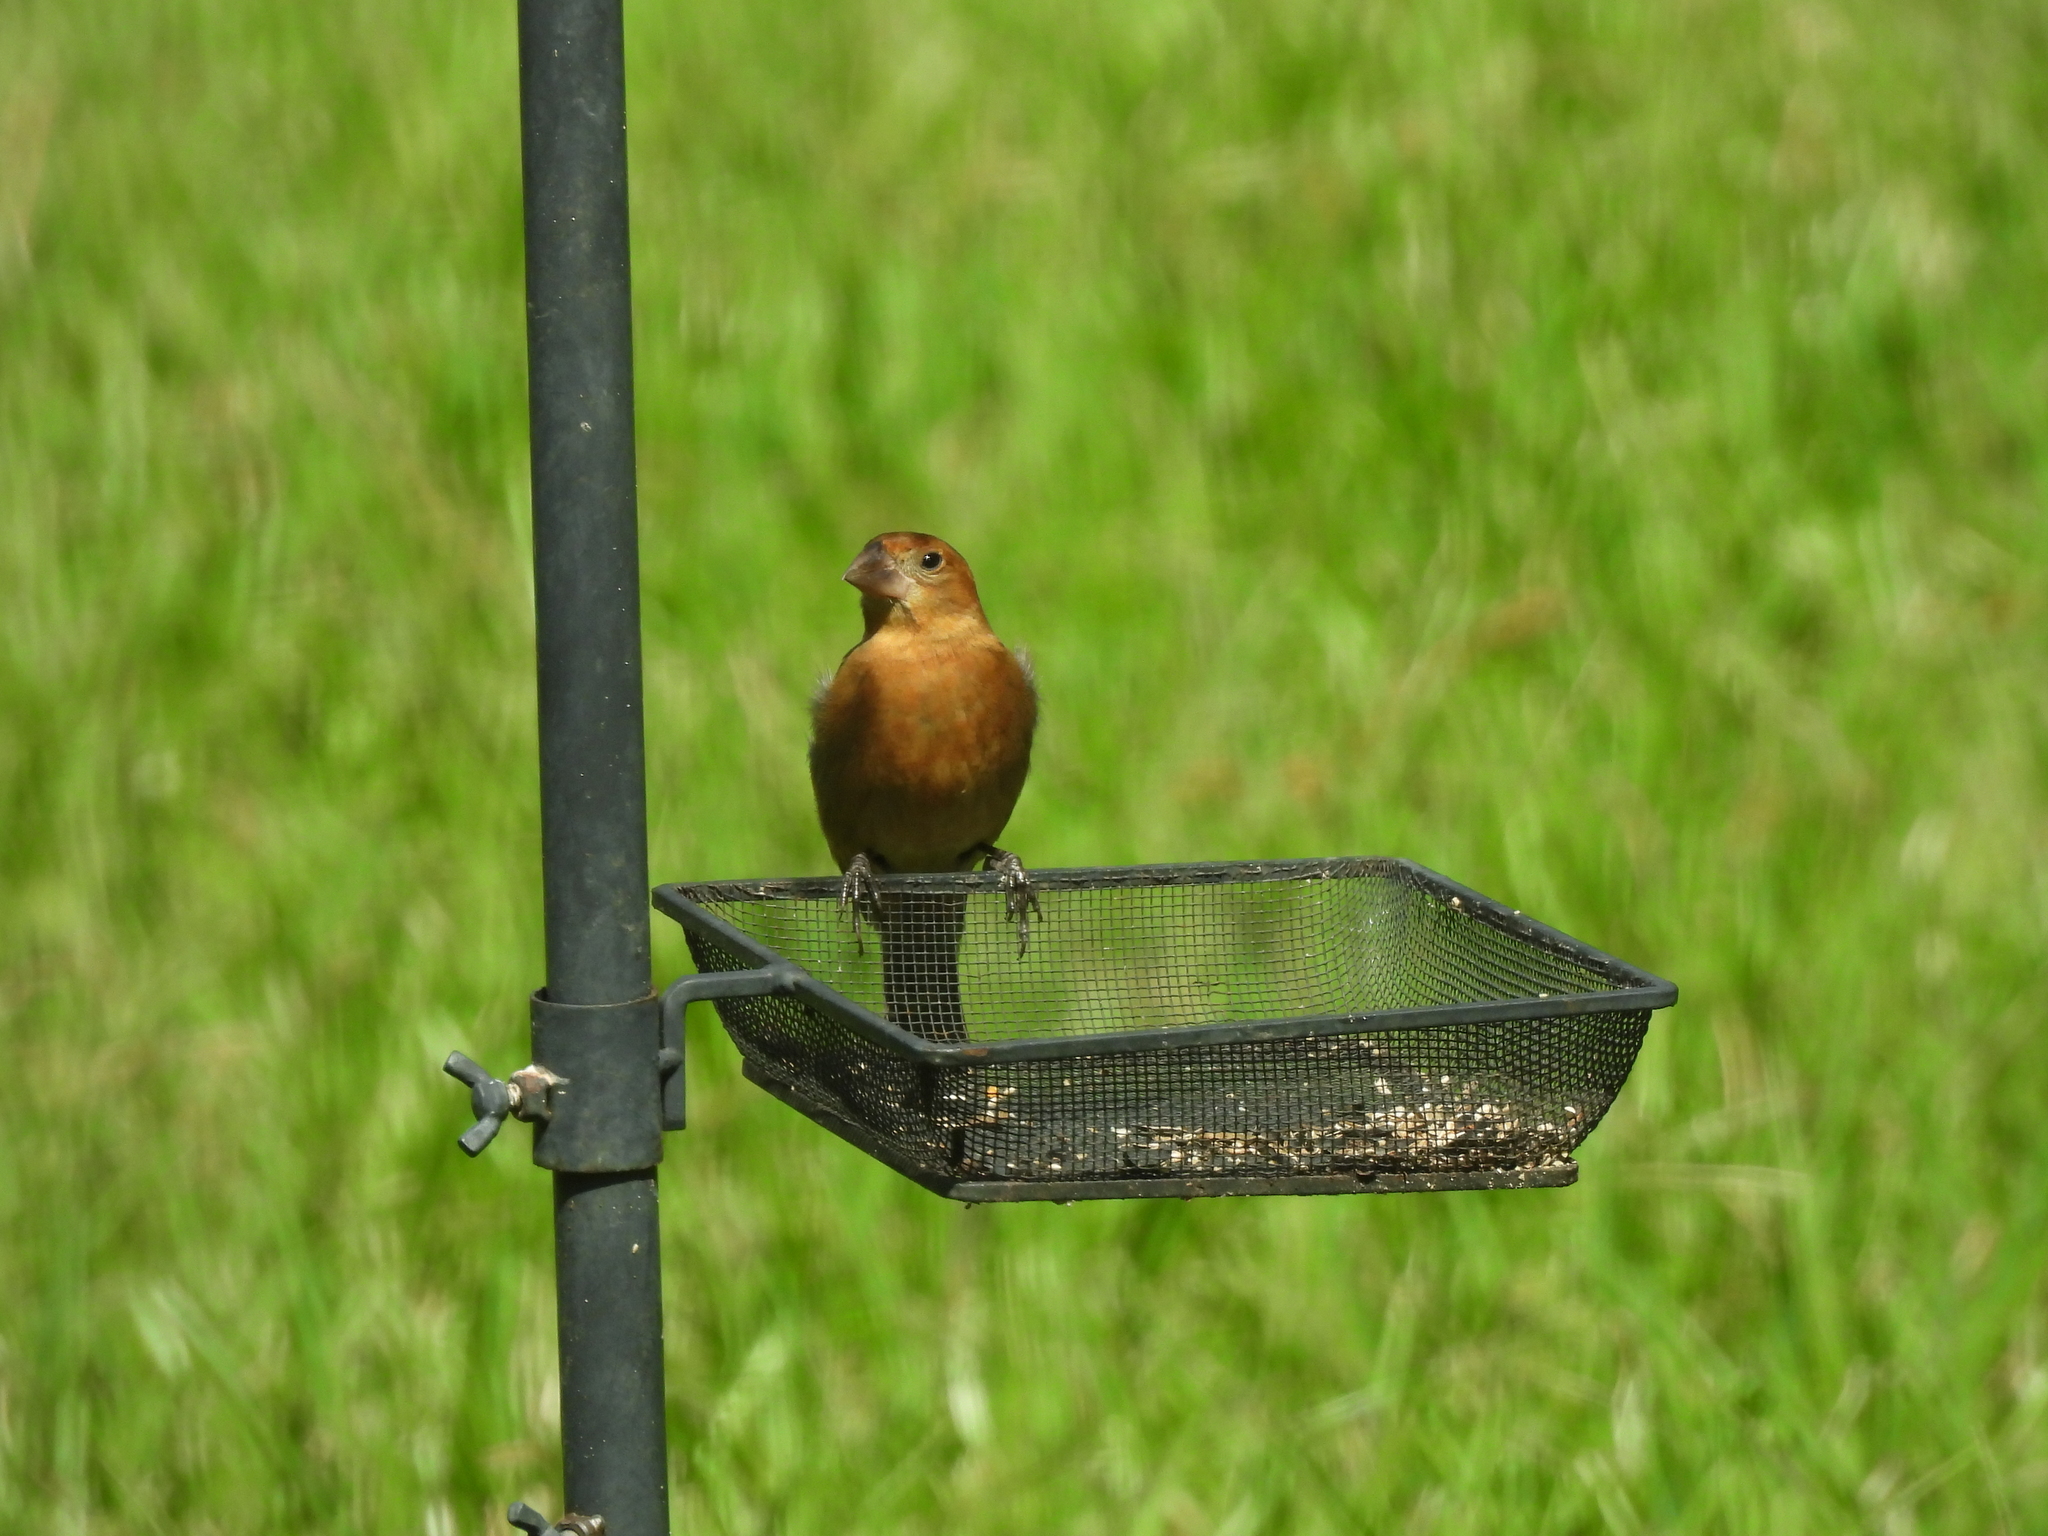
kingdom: Animalia
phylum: Chordata
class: Aves
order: Passeriformes
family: Cardinalidae
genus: Passerina
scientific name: Passerina caerulea
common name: Blue grosbeak
